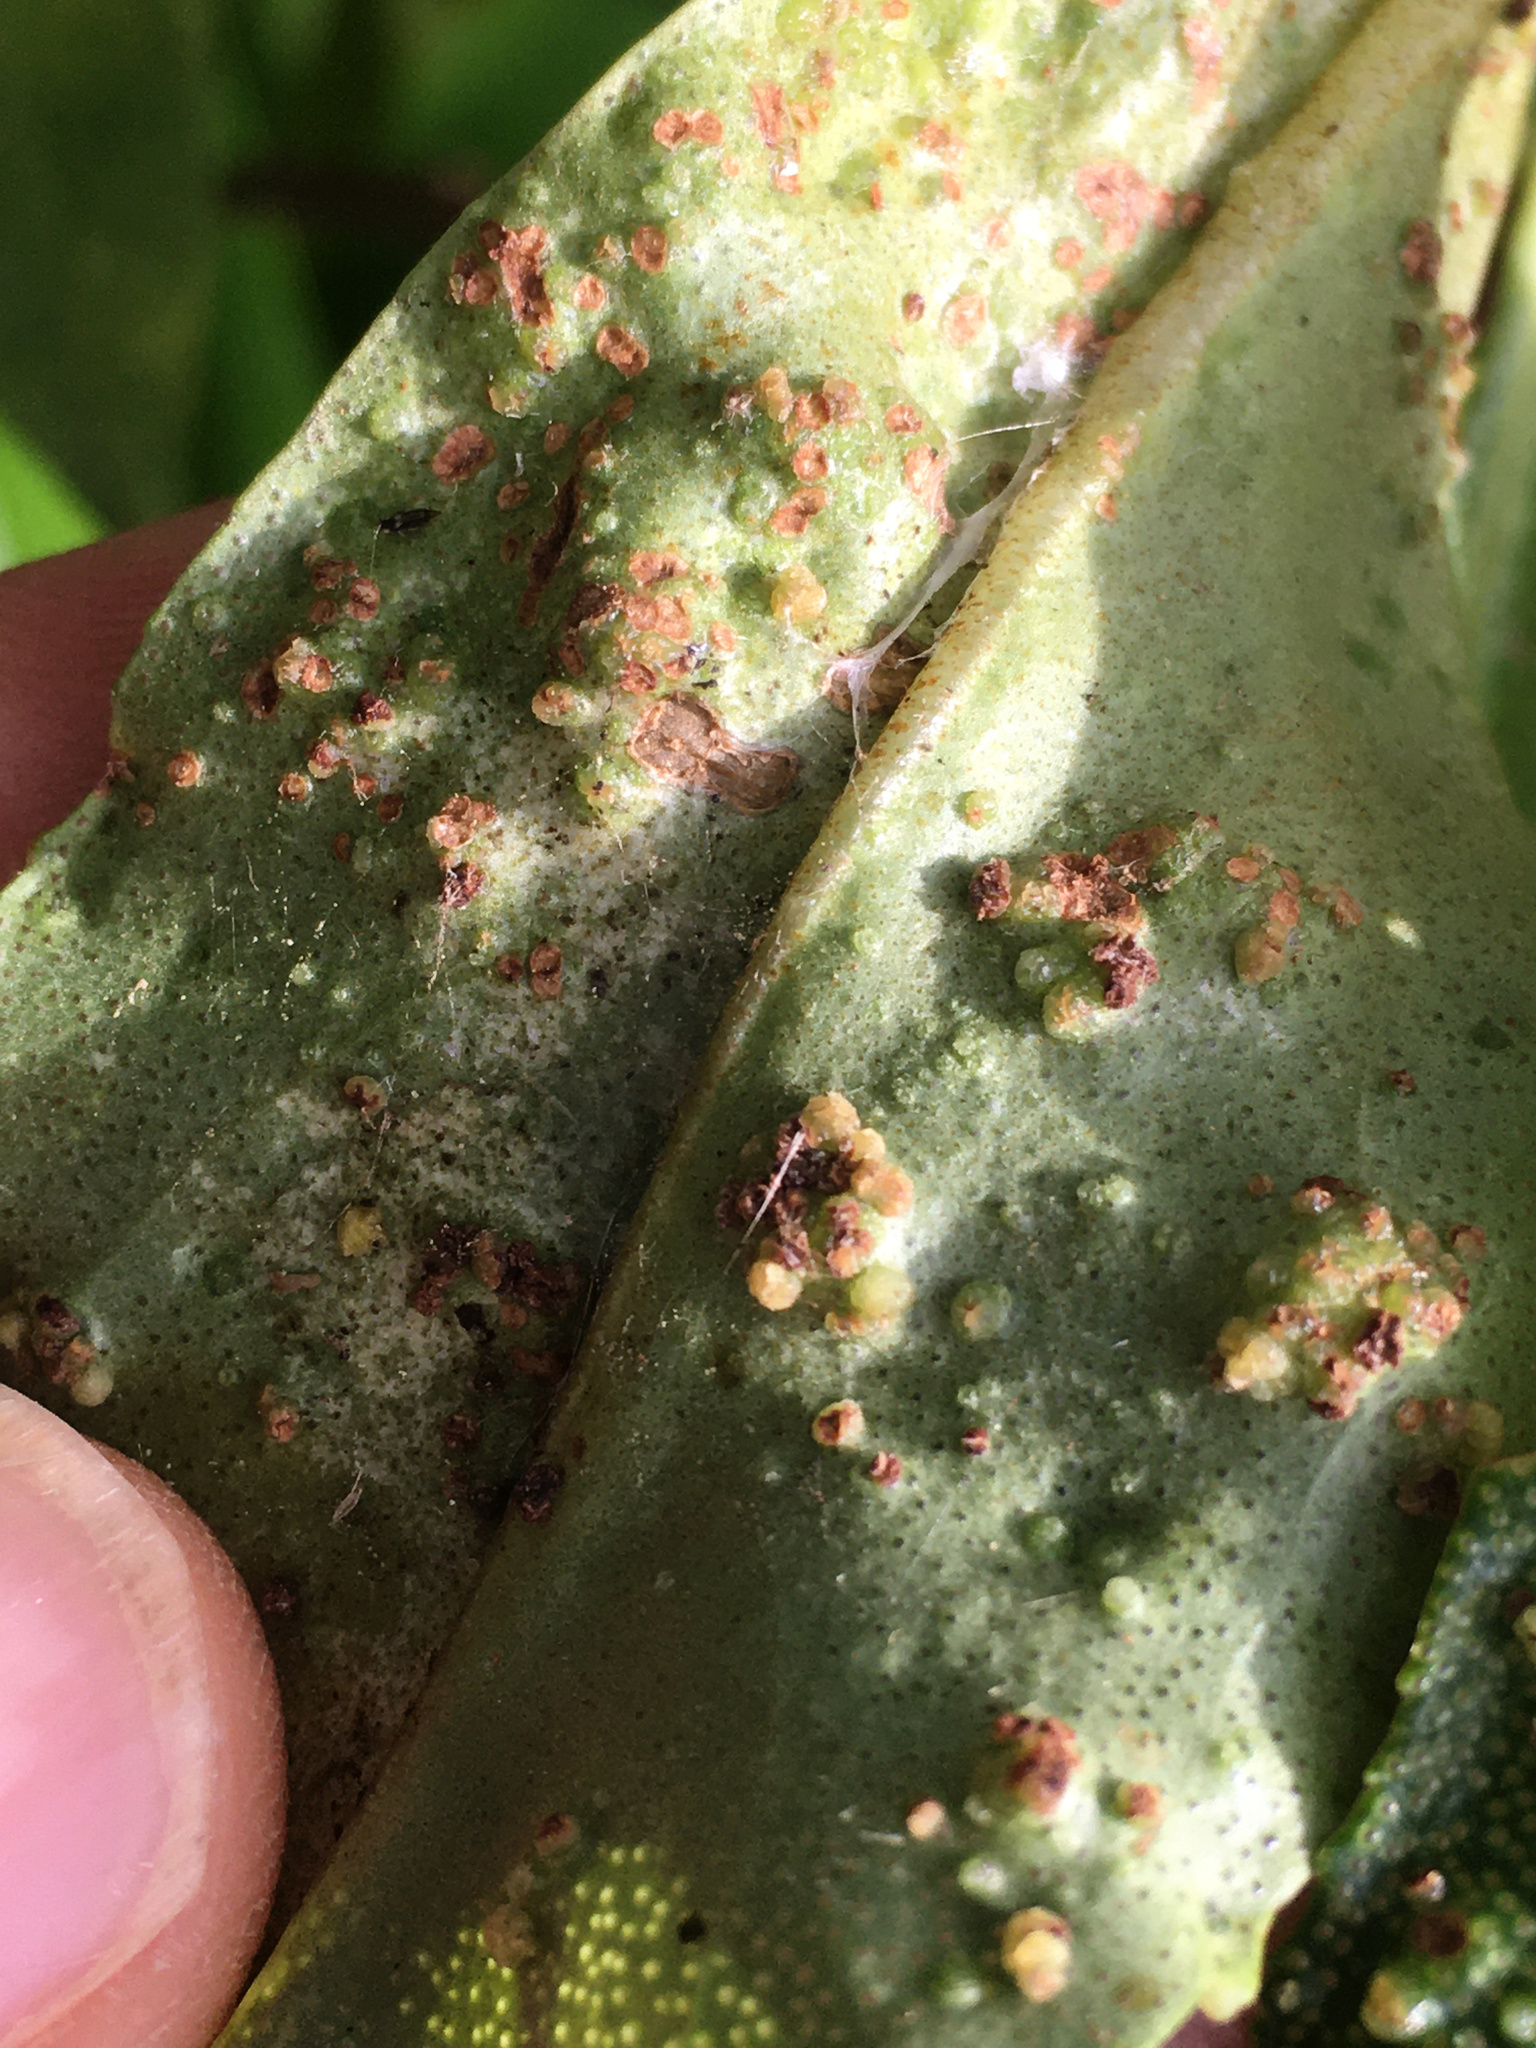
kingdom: Animalia
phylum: Arthropoda
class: Arachnida
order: Trombidiformes
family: Eriophyidae
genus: Aceria
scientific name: Aceria healyi
